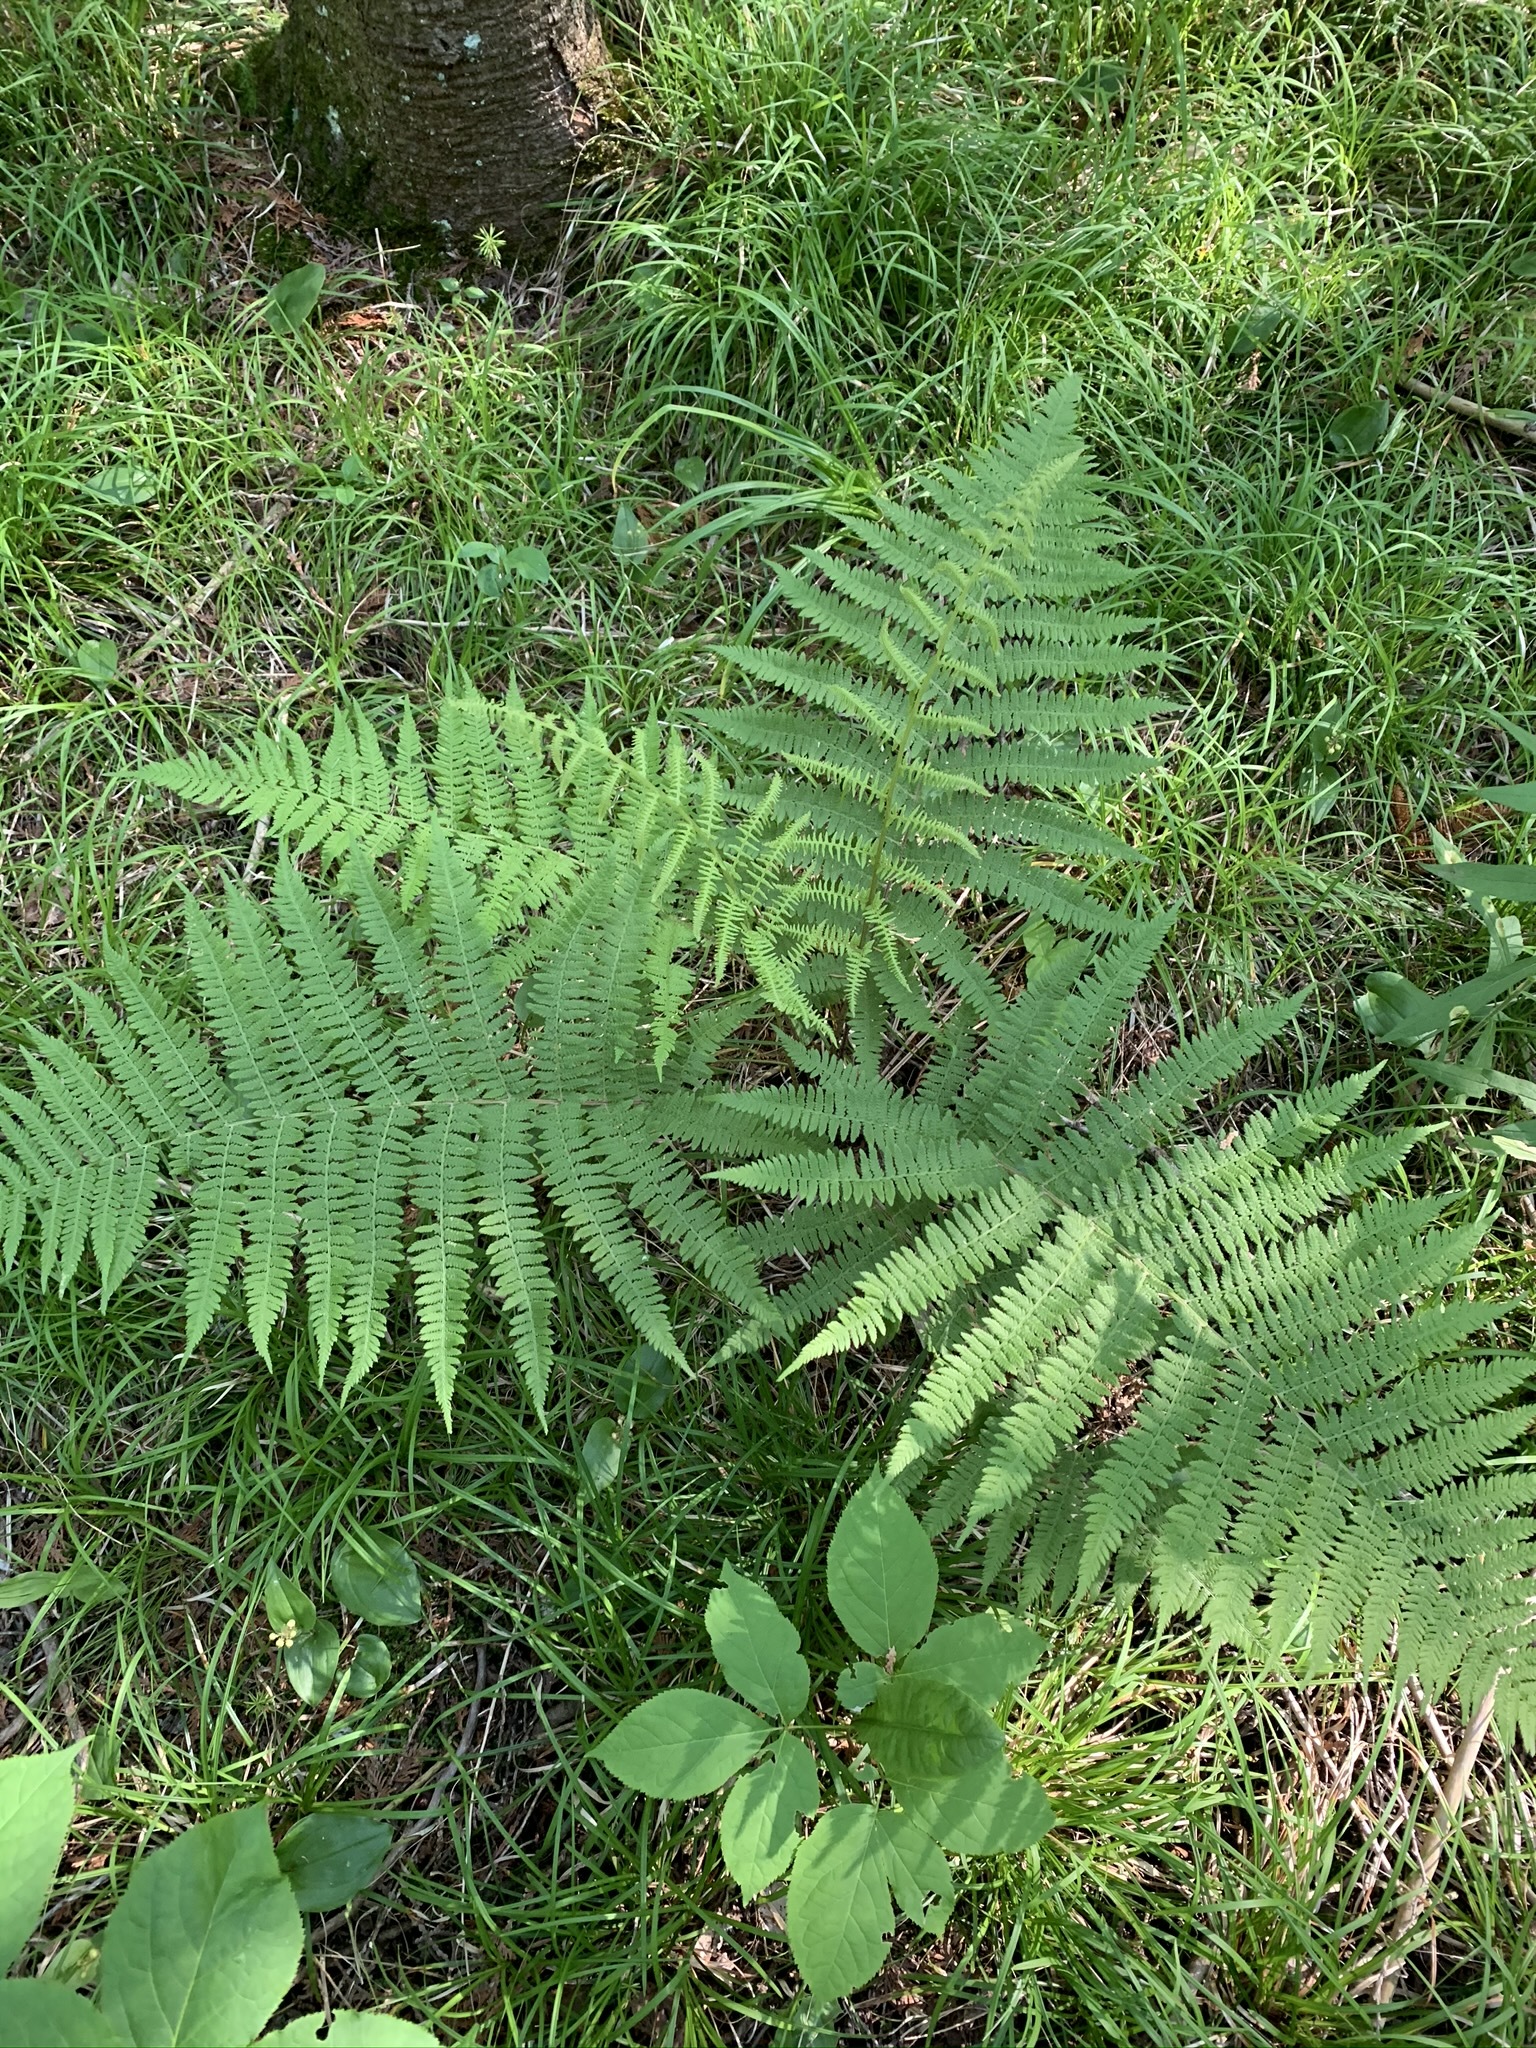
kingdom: Plantae
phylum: Tracheophyta
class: Polypodiopsida
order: Polypodiales
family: Athyriaceae
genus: Athyrium
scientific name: Athyrium angustum
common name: Northern lady fern
